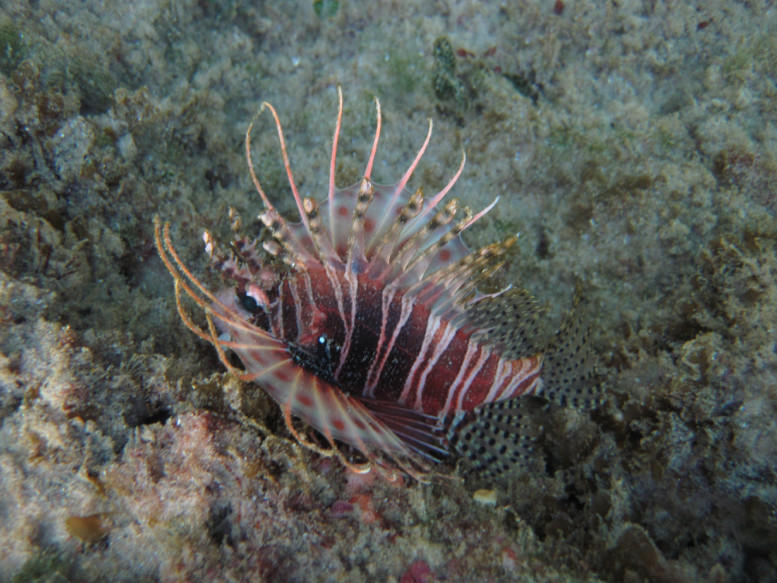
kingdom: Animalia
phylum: Chordata
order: Scorpaeniformes
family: Scorpaenidae
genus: Pterois
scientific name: Pterois antennata
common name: Spotfin lionfish
